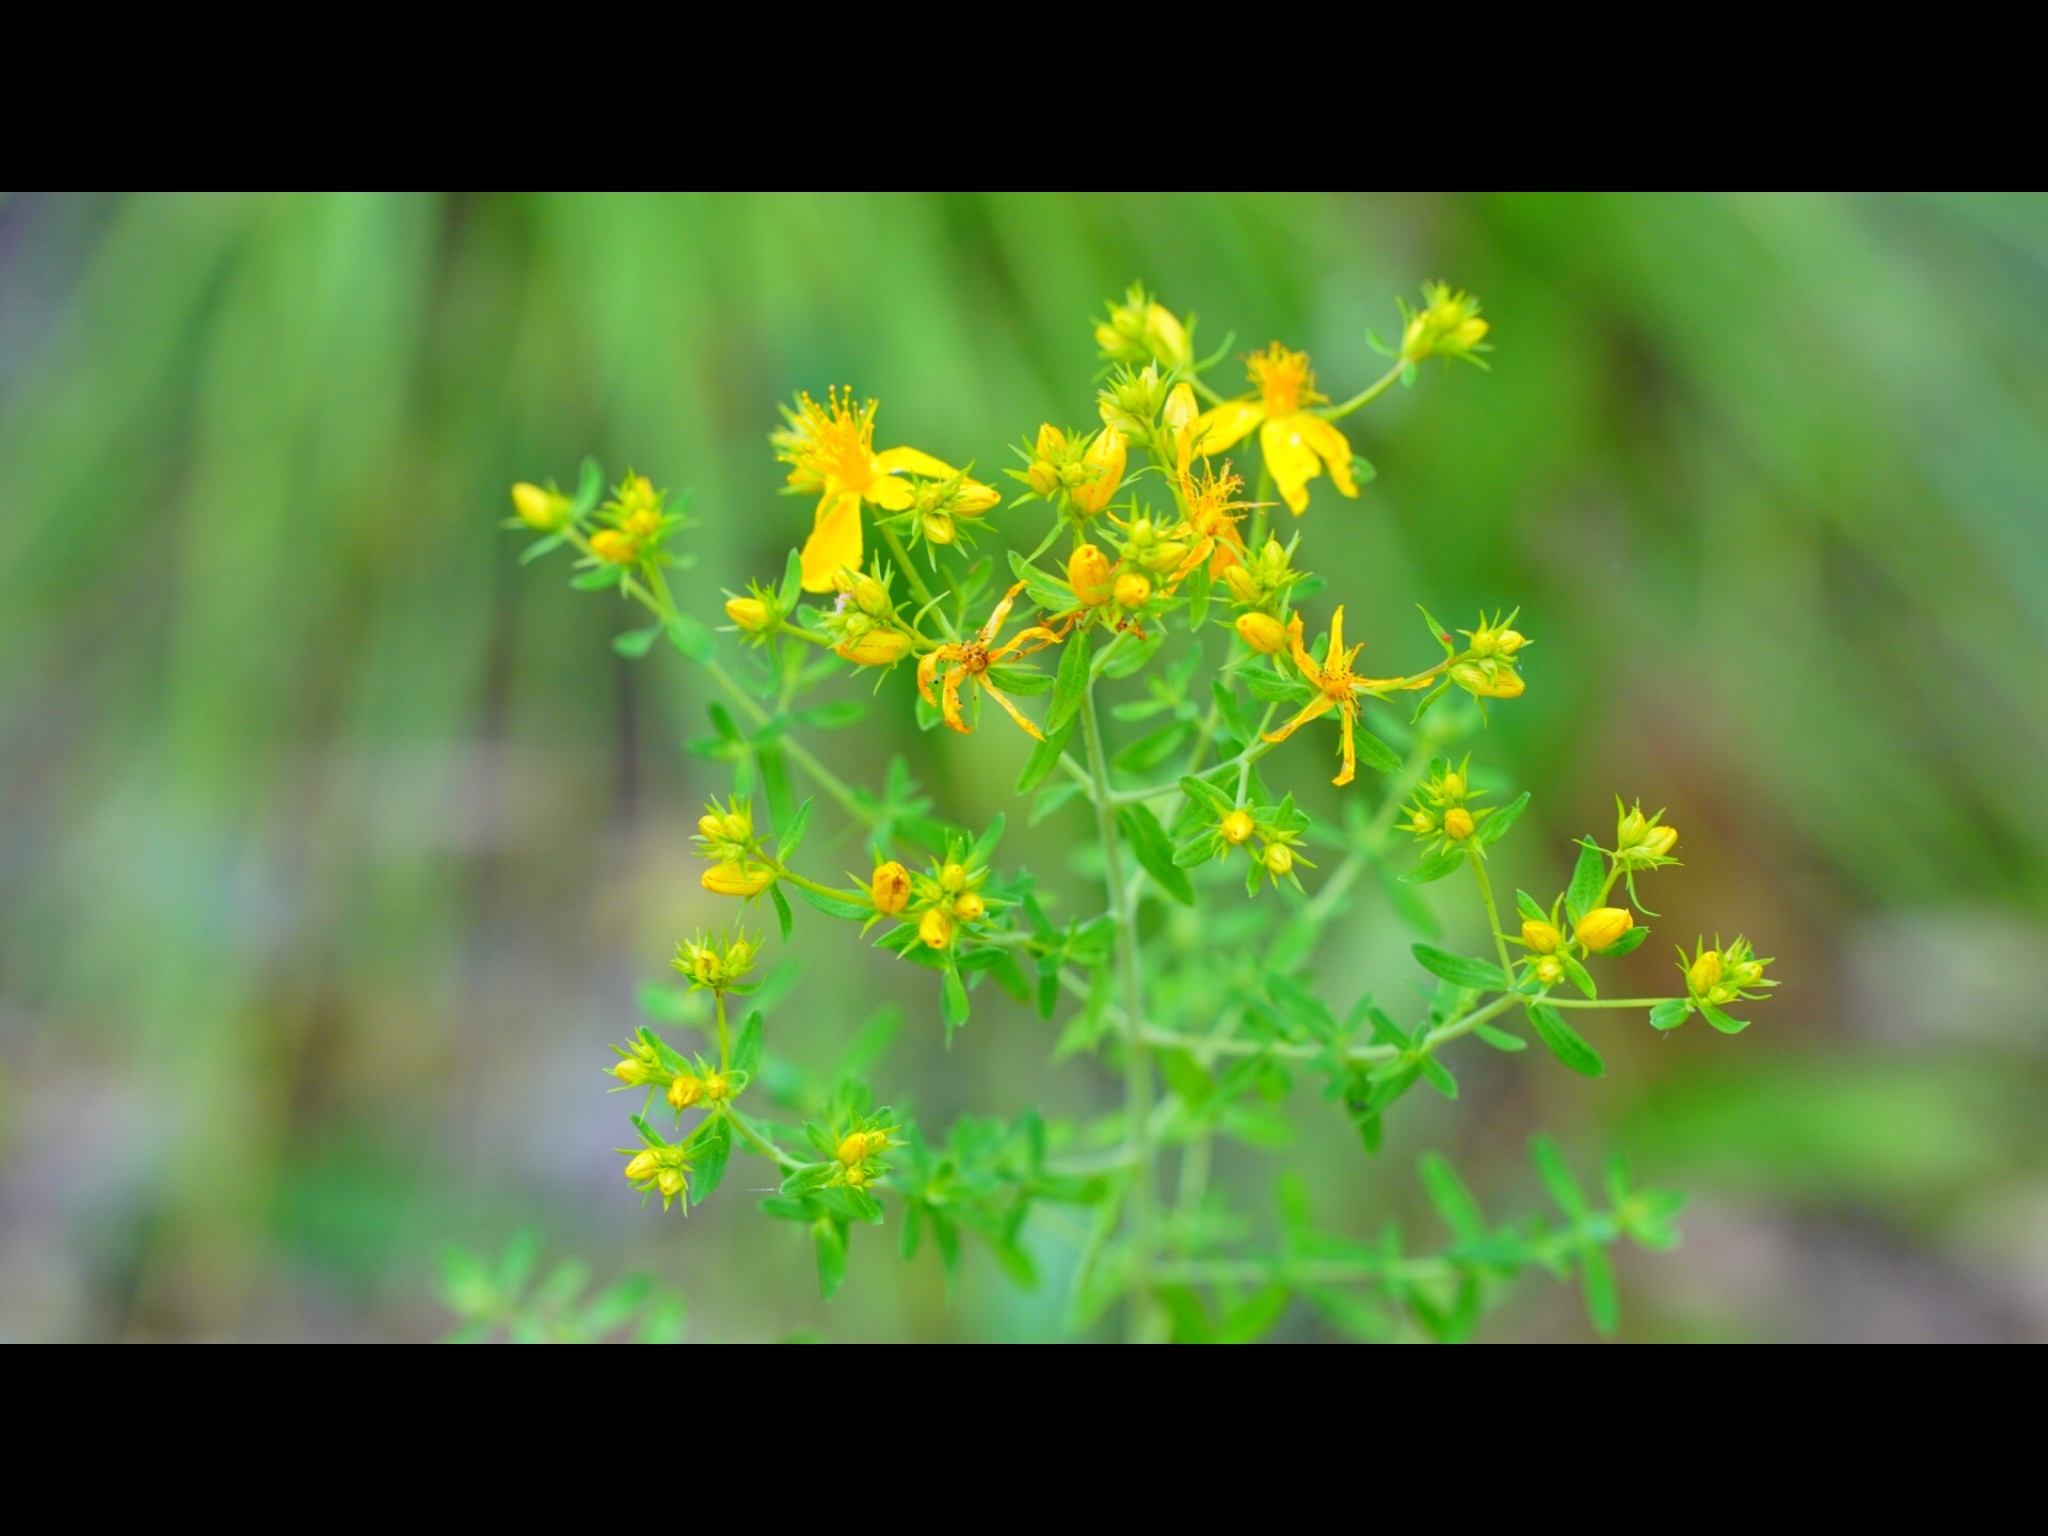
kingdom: Plantae
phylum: Tracheophyta
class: Magnoliopsida
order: Malpighiales
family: Hypericaceae
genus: Hypericum
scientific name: Hypericum perforatum
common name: Common st. johnswort
